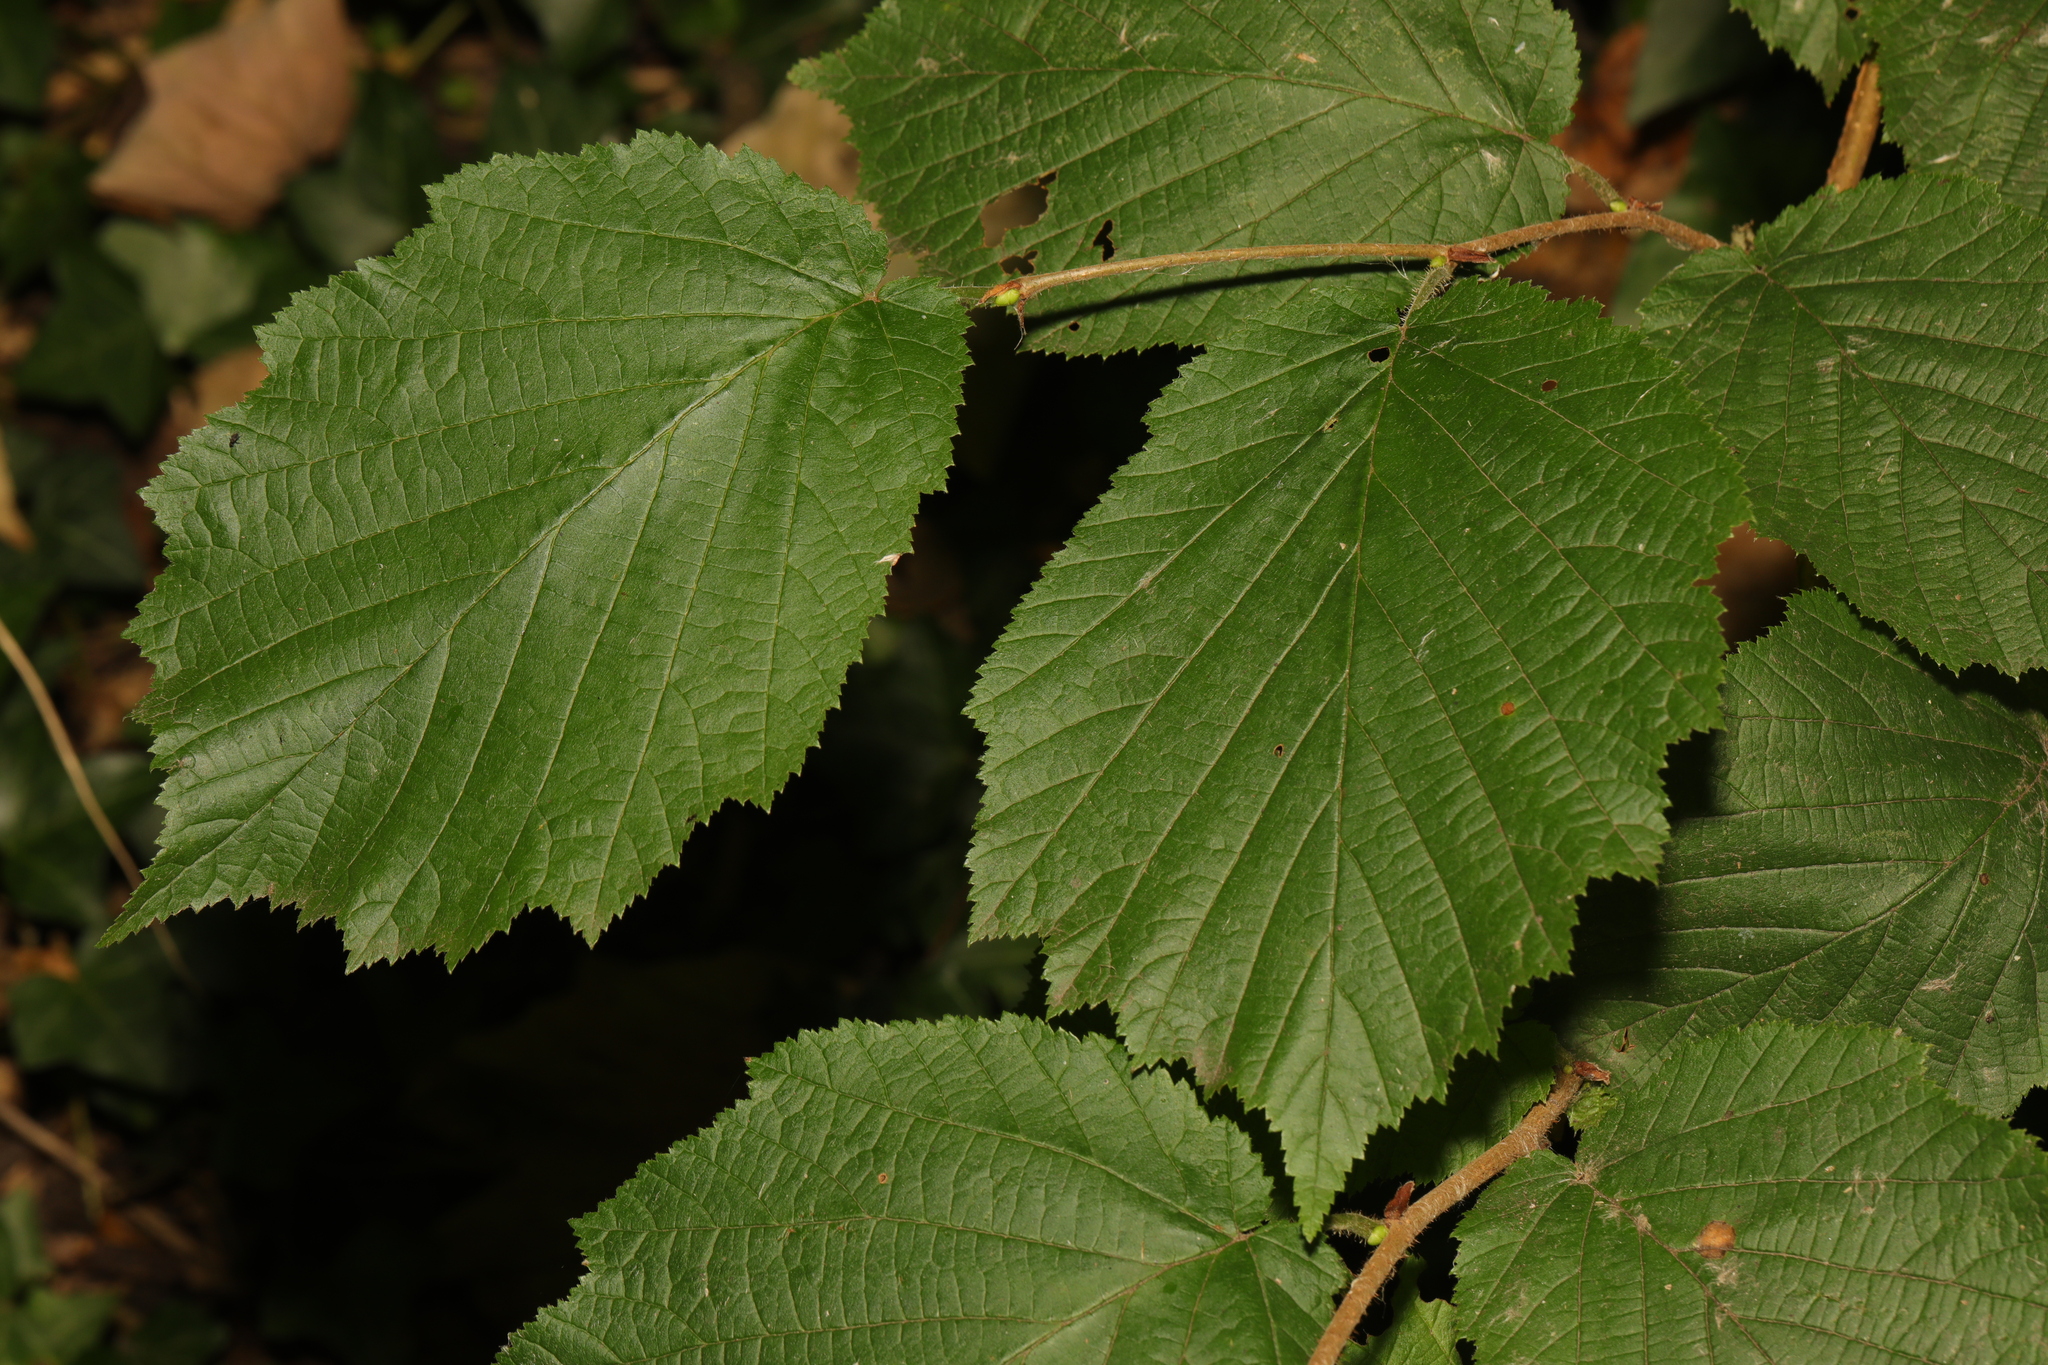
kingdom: Plantae
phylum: Tracheophyta
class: Magnoliopsida
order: Fagales
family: Betulaceae
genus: Corylus
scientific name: Corylus avellana
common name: European hazel
